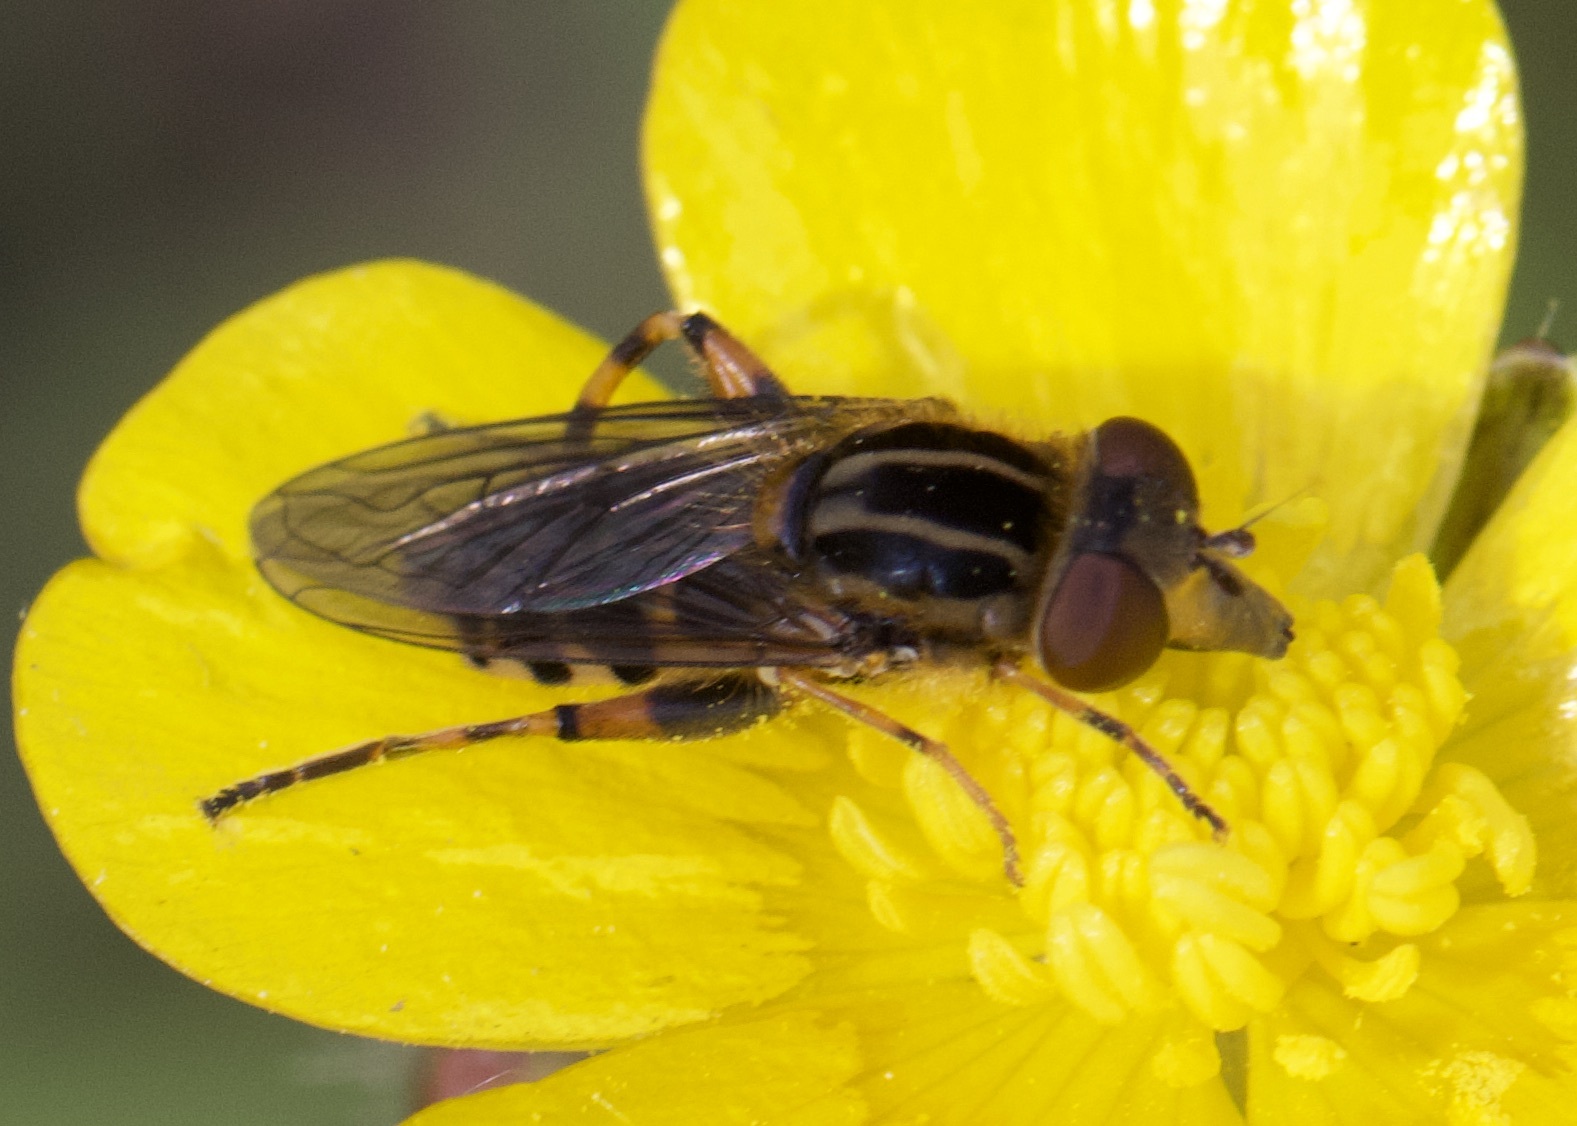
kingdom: Animalia
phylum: Arthropoda
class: Insecta
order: Diptera
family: Syrphidae
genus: Eurimyia
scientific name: Eurimyia lineatus
